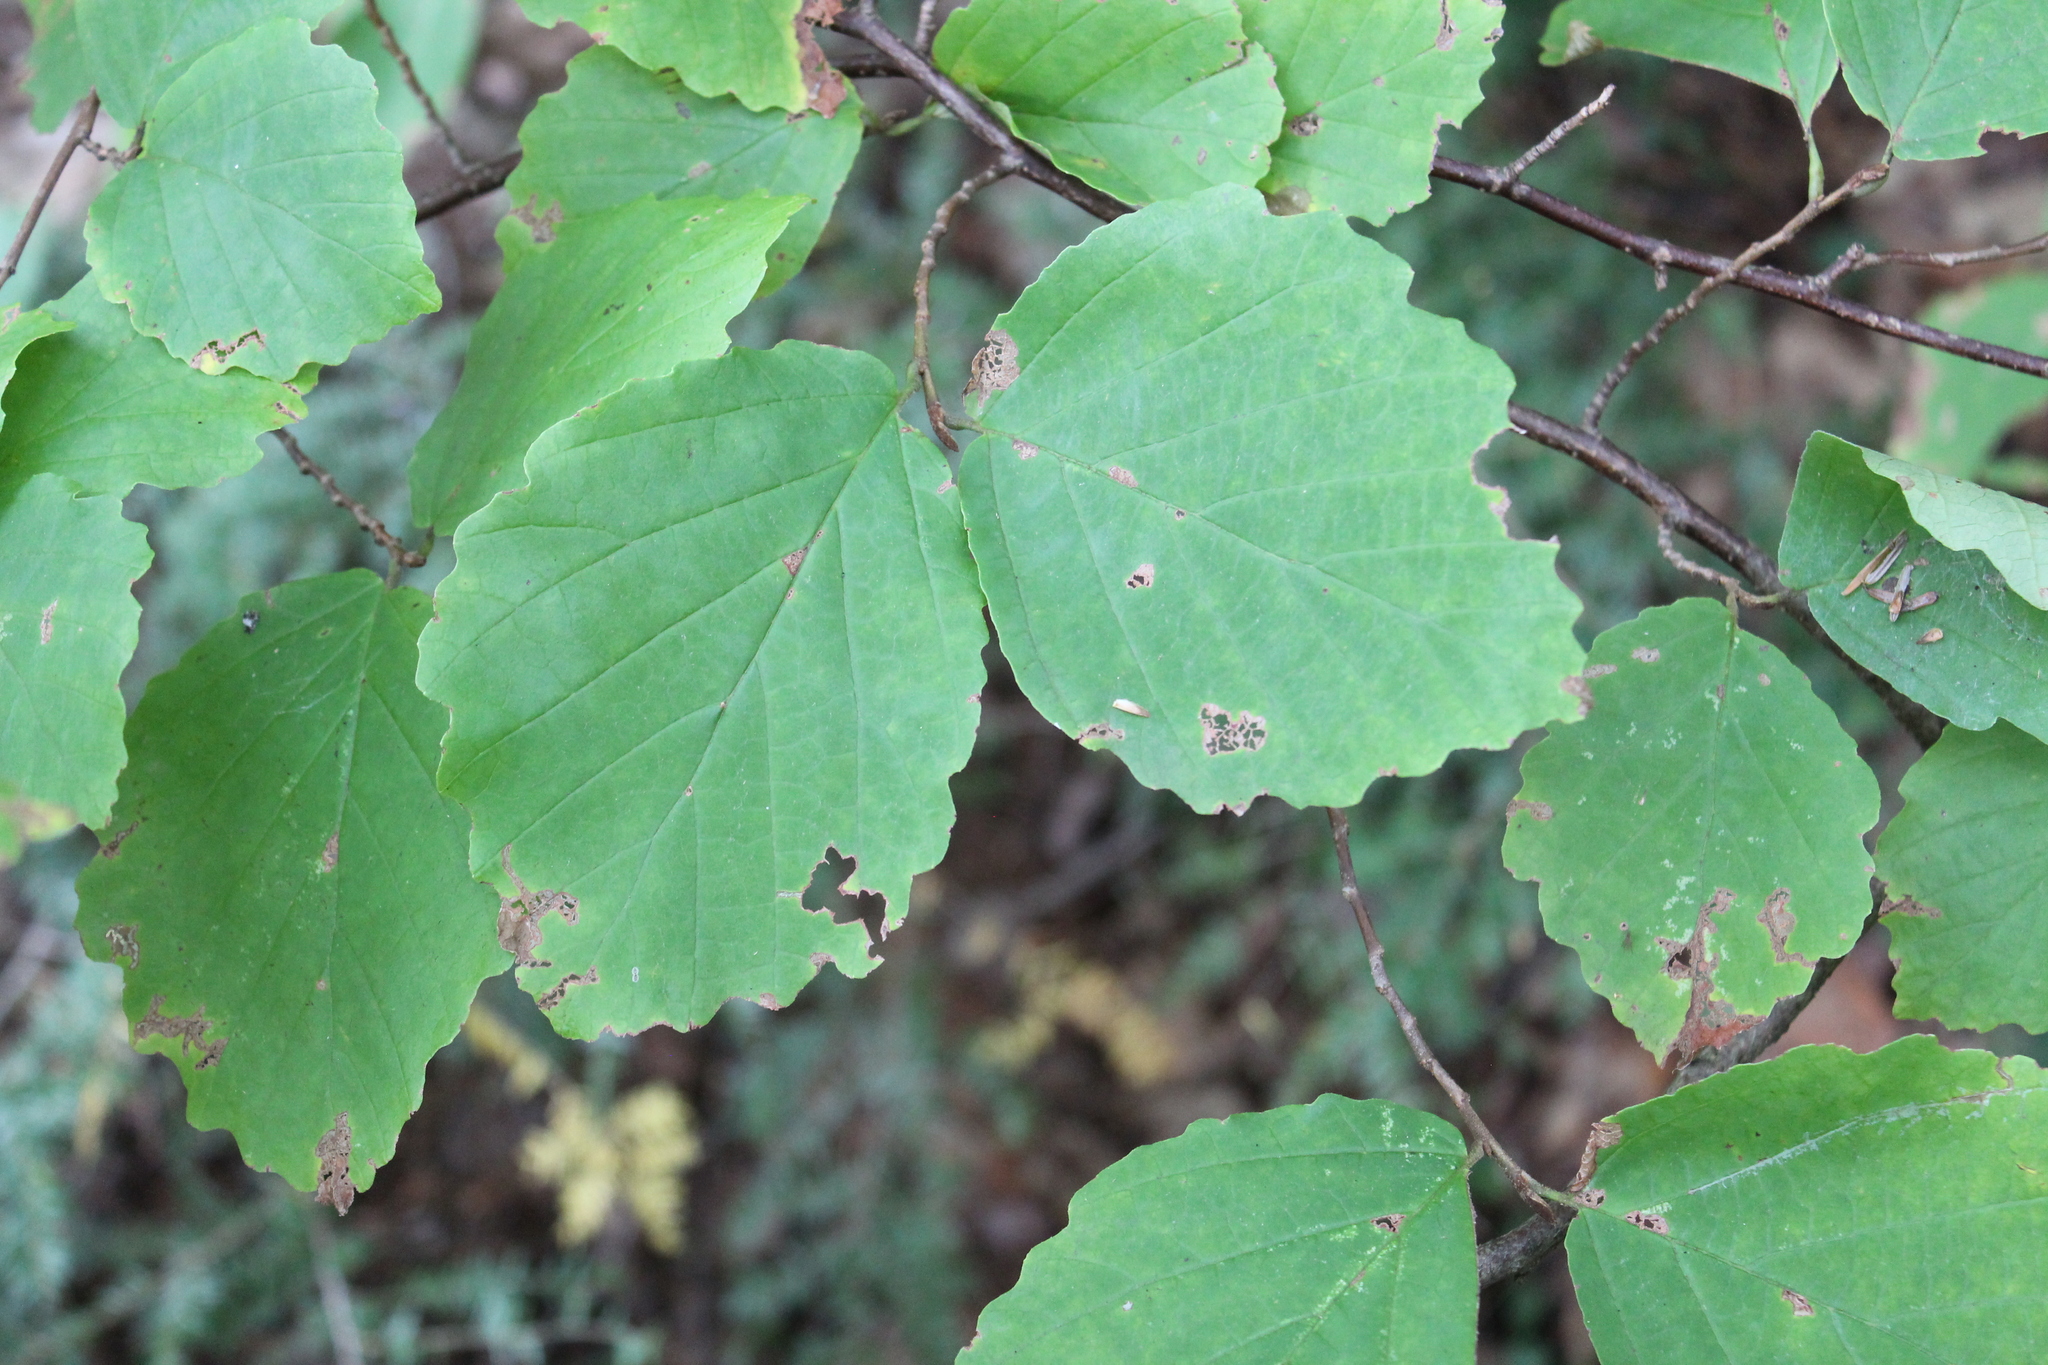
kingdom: Plantae
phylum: Tracheophyta
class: Magnoliopsida
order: Saxifragales
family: Hamamelidaceae
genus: Hamamelis
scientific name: Hamamelis virginiana
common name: Witch-hazel
